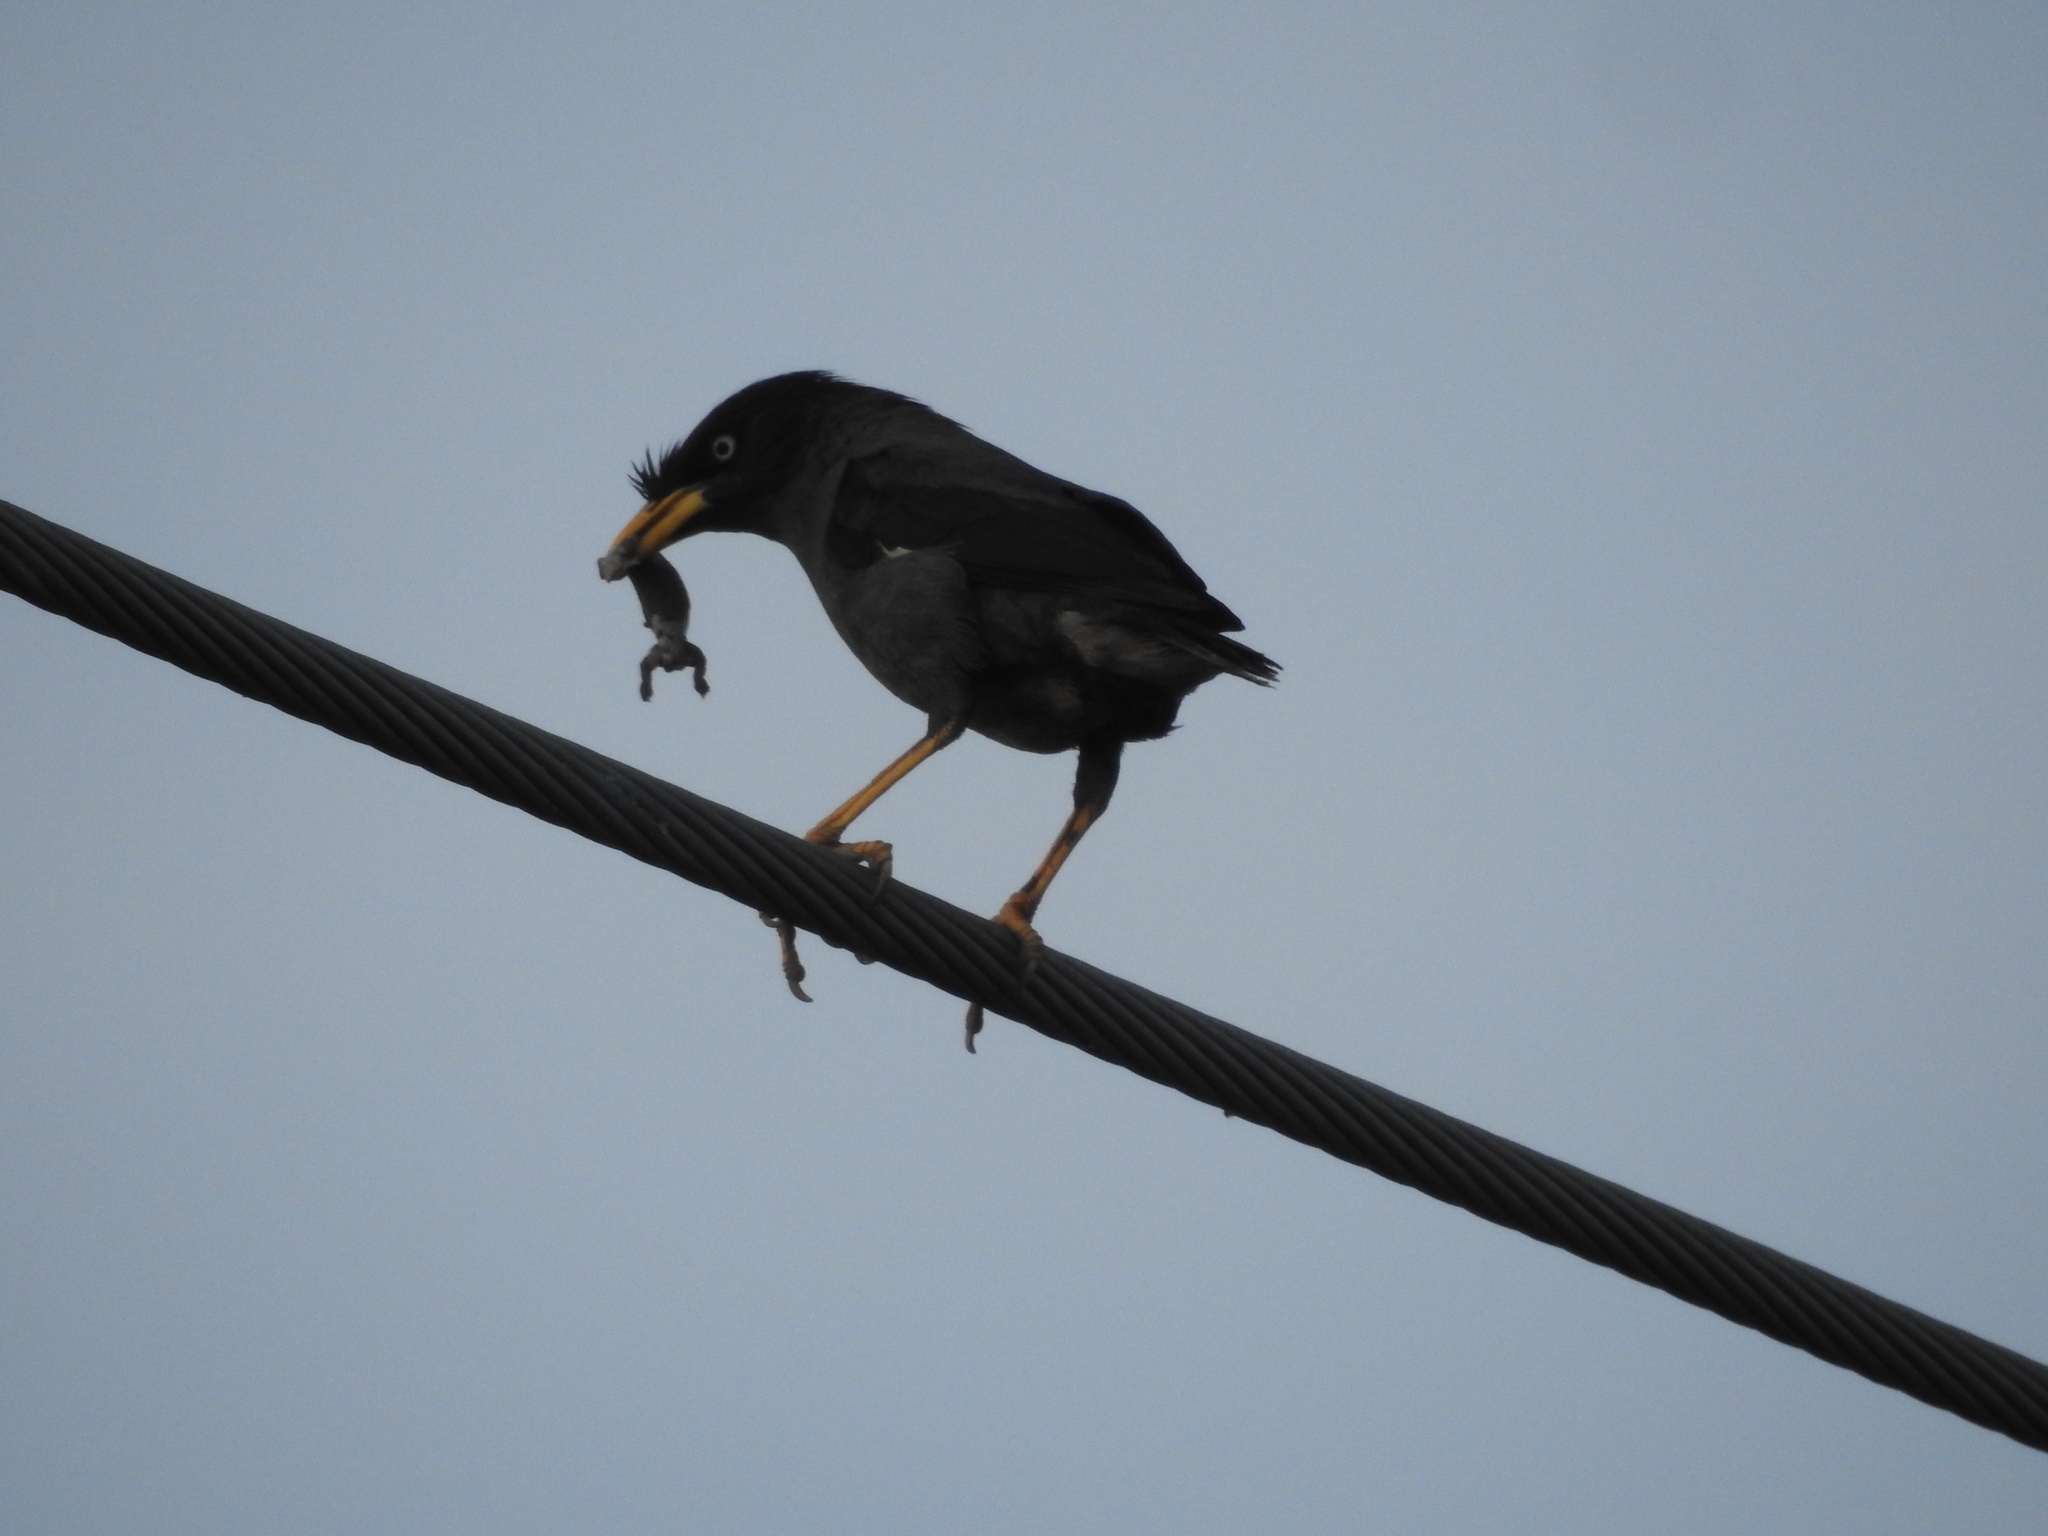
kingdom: Animalia
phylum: Chordata
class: Aves
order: Passeriformes
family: Sturnidae
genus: Acridotheres
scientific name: Acridotheres javanicus
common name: Javan myna
